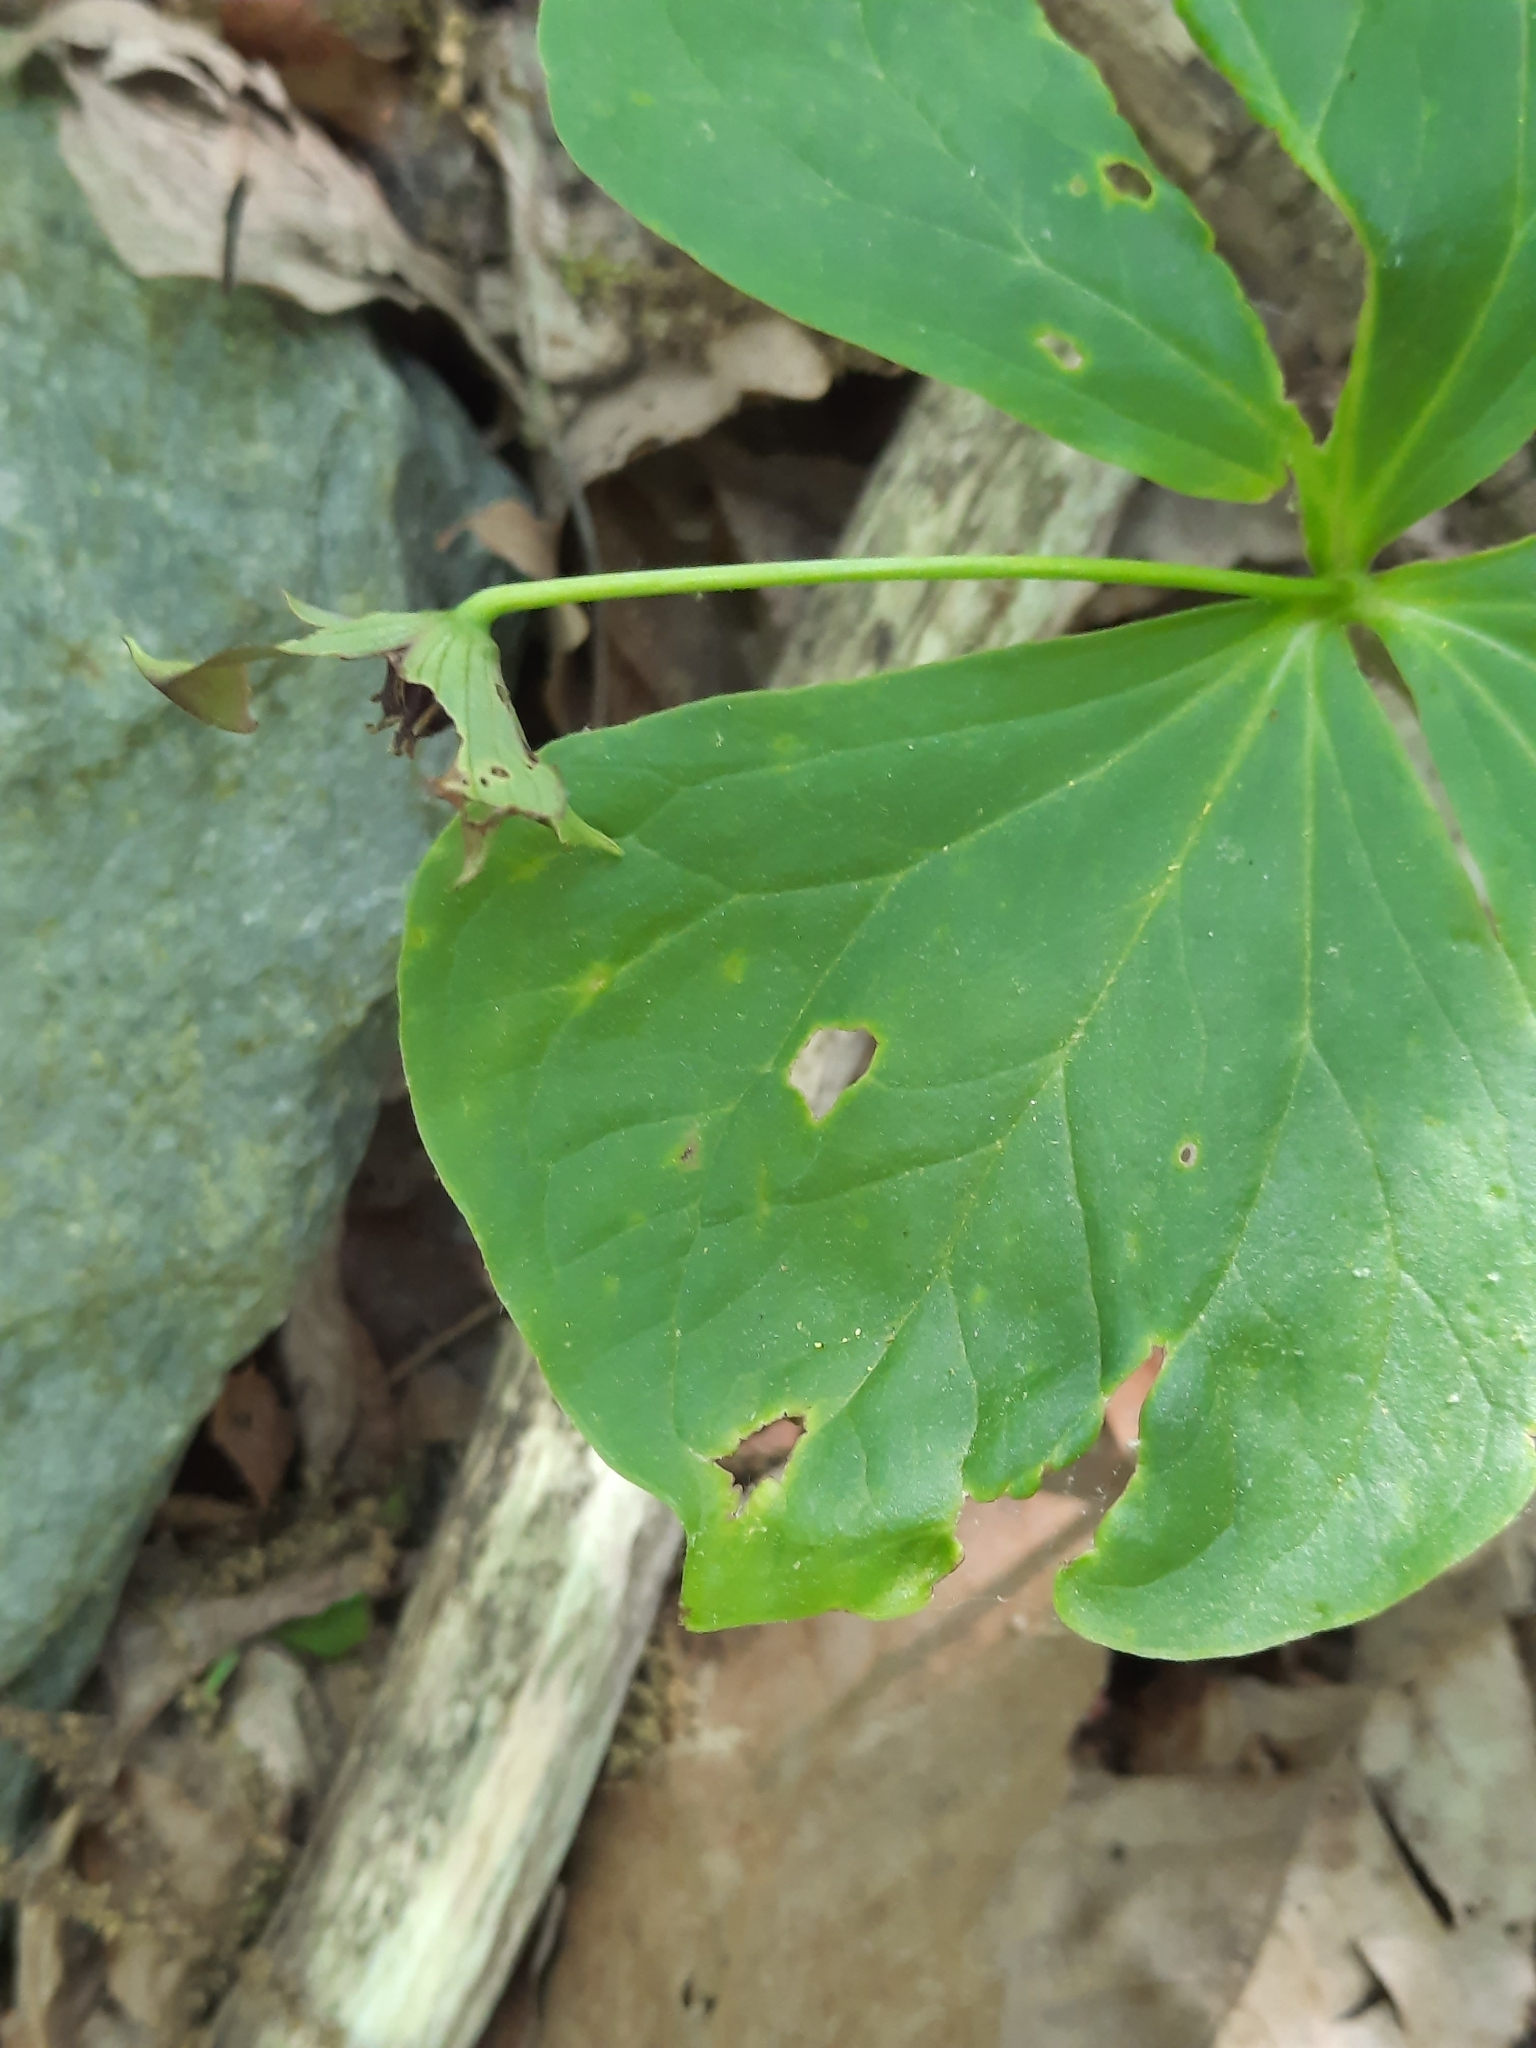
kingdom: Plantae
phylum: Tracheophyta
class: Liliopsida
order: Liliales
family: Melanthiaceae
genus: Trillium
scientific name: Trillium erectum
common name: Purple trillium
